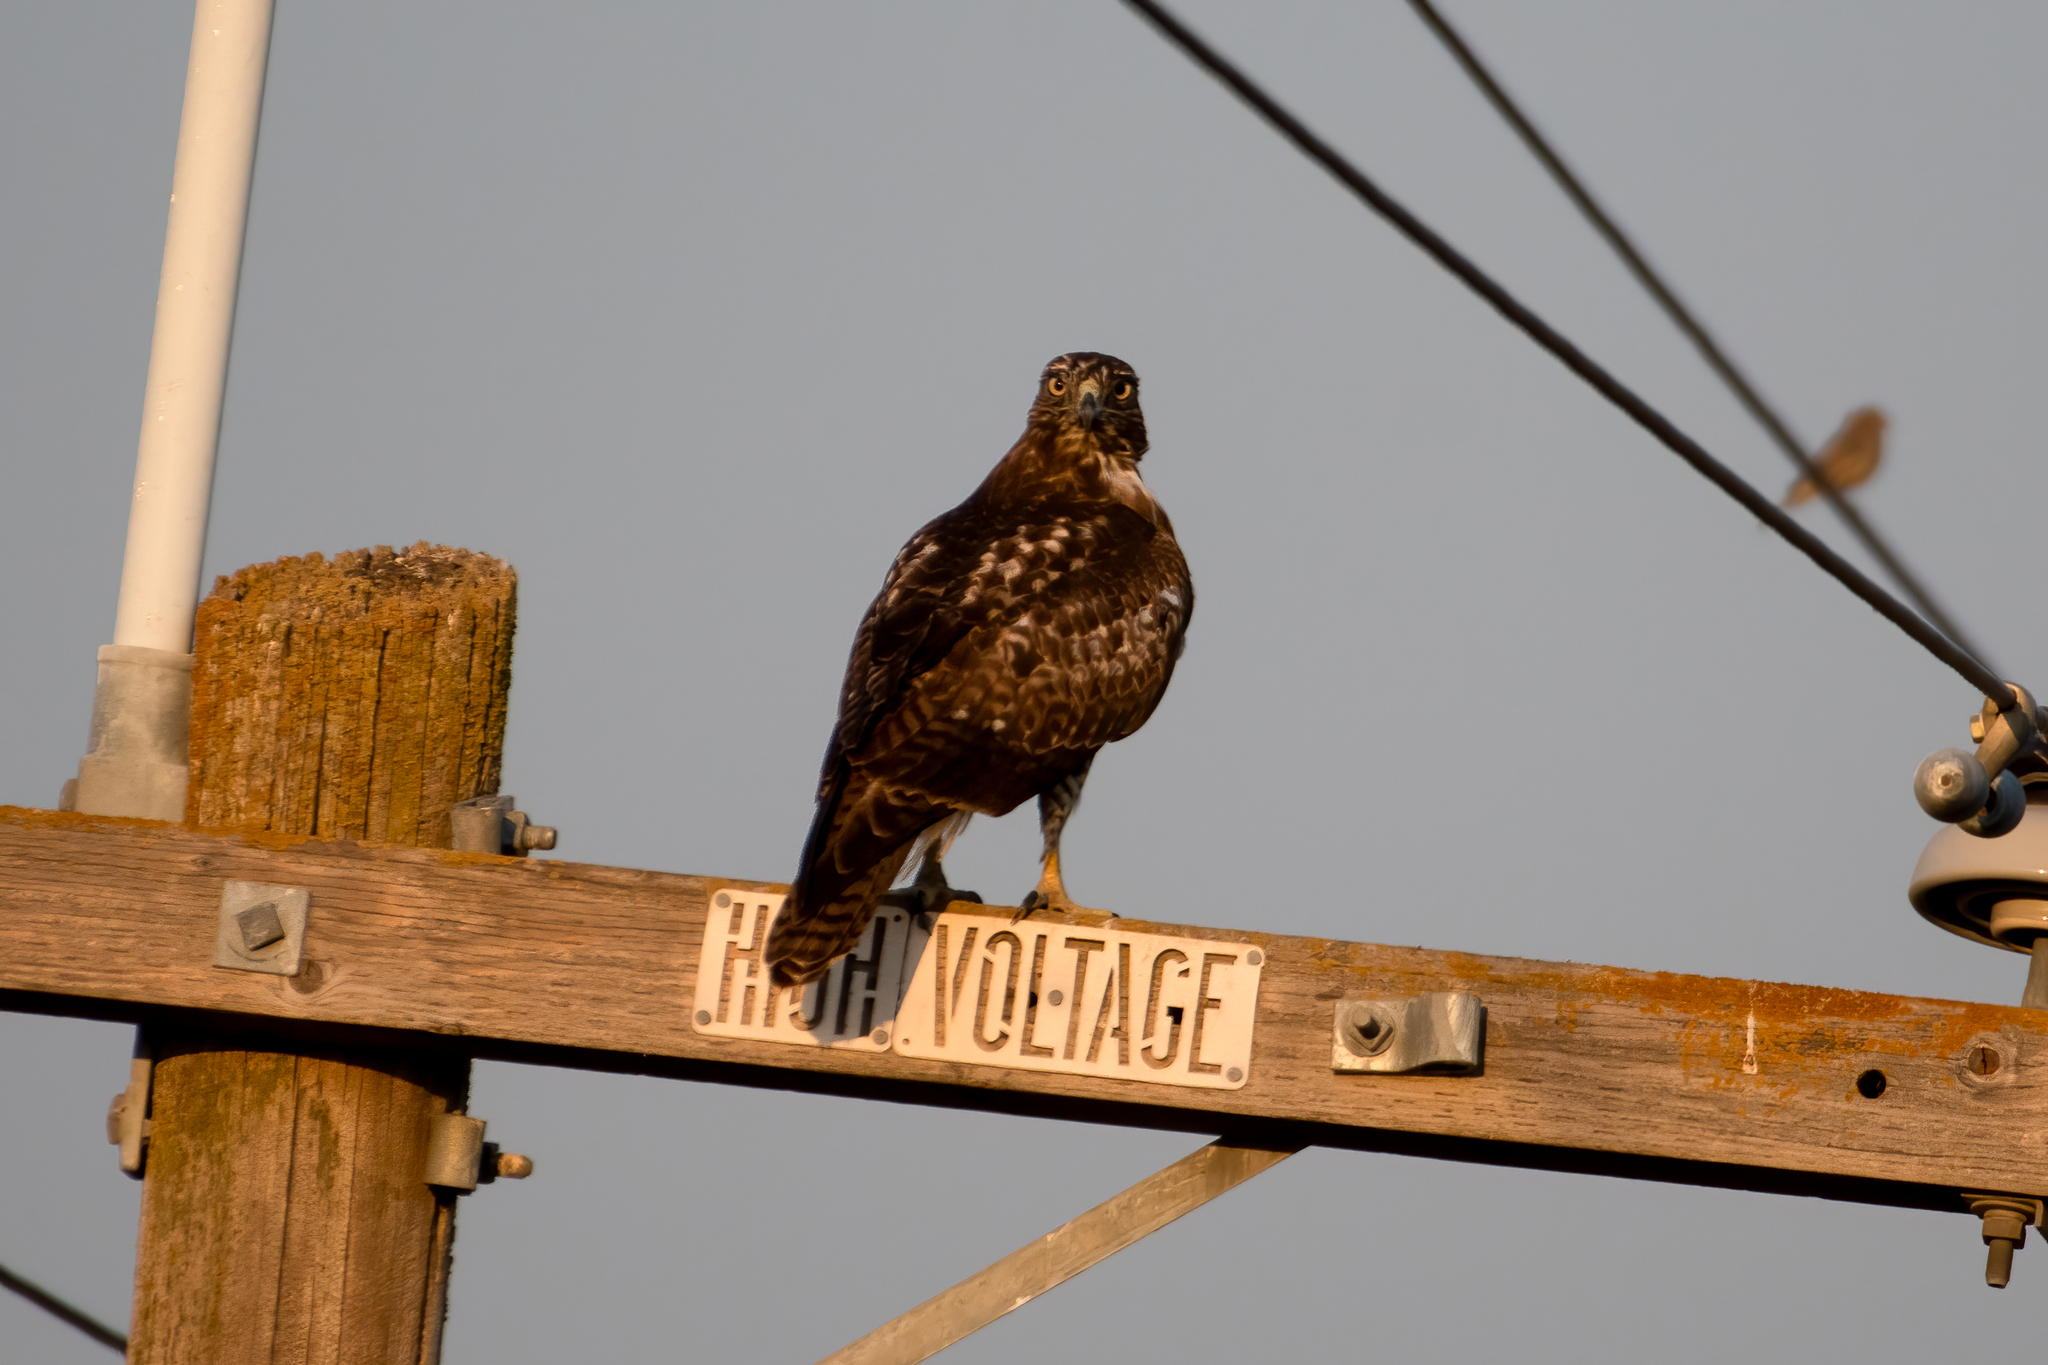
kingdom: Animalia
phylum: Chordata
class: Aves
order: Accipitriformes
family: Accipitridae
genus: Buteo
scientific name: Buteo jamaicensis
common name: Red-tailed hawk
